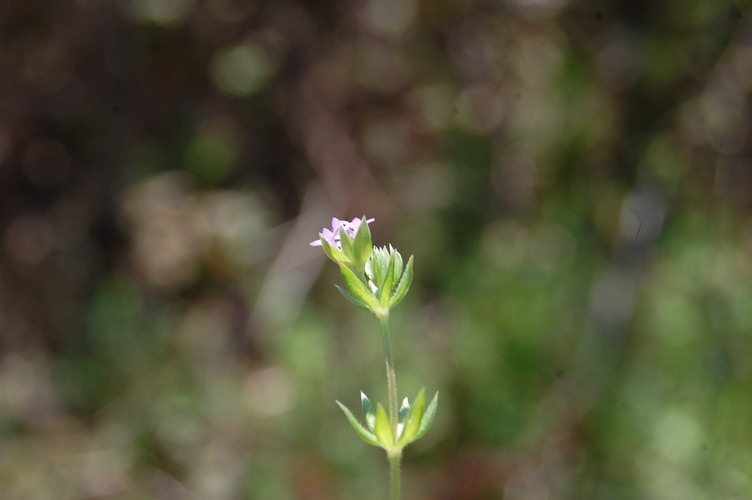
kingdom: Plantae
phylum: Tracheophyta
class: Magnoliopsida
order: Gentianales
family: Rubiaceae
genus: Sherardia
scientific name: Sherardia arvensis
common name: Field madder
